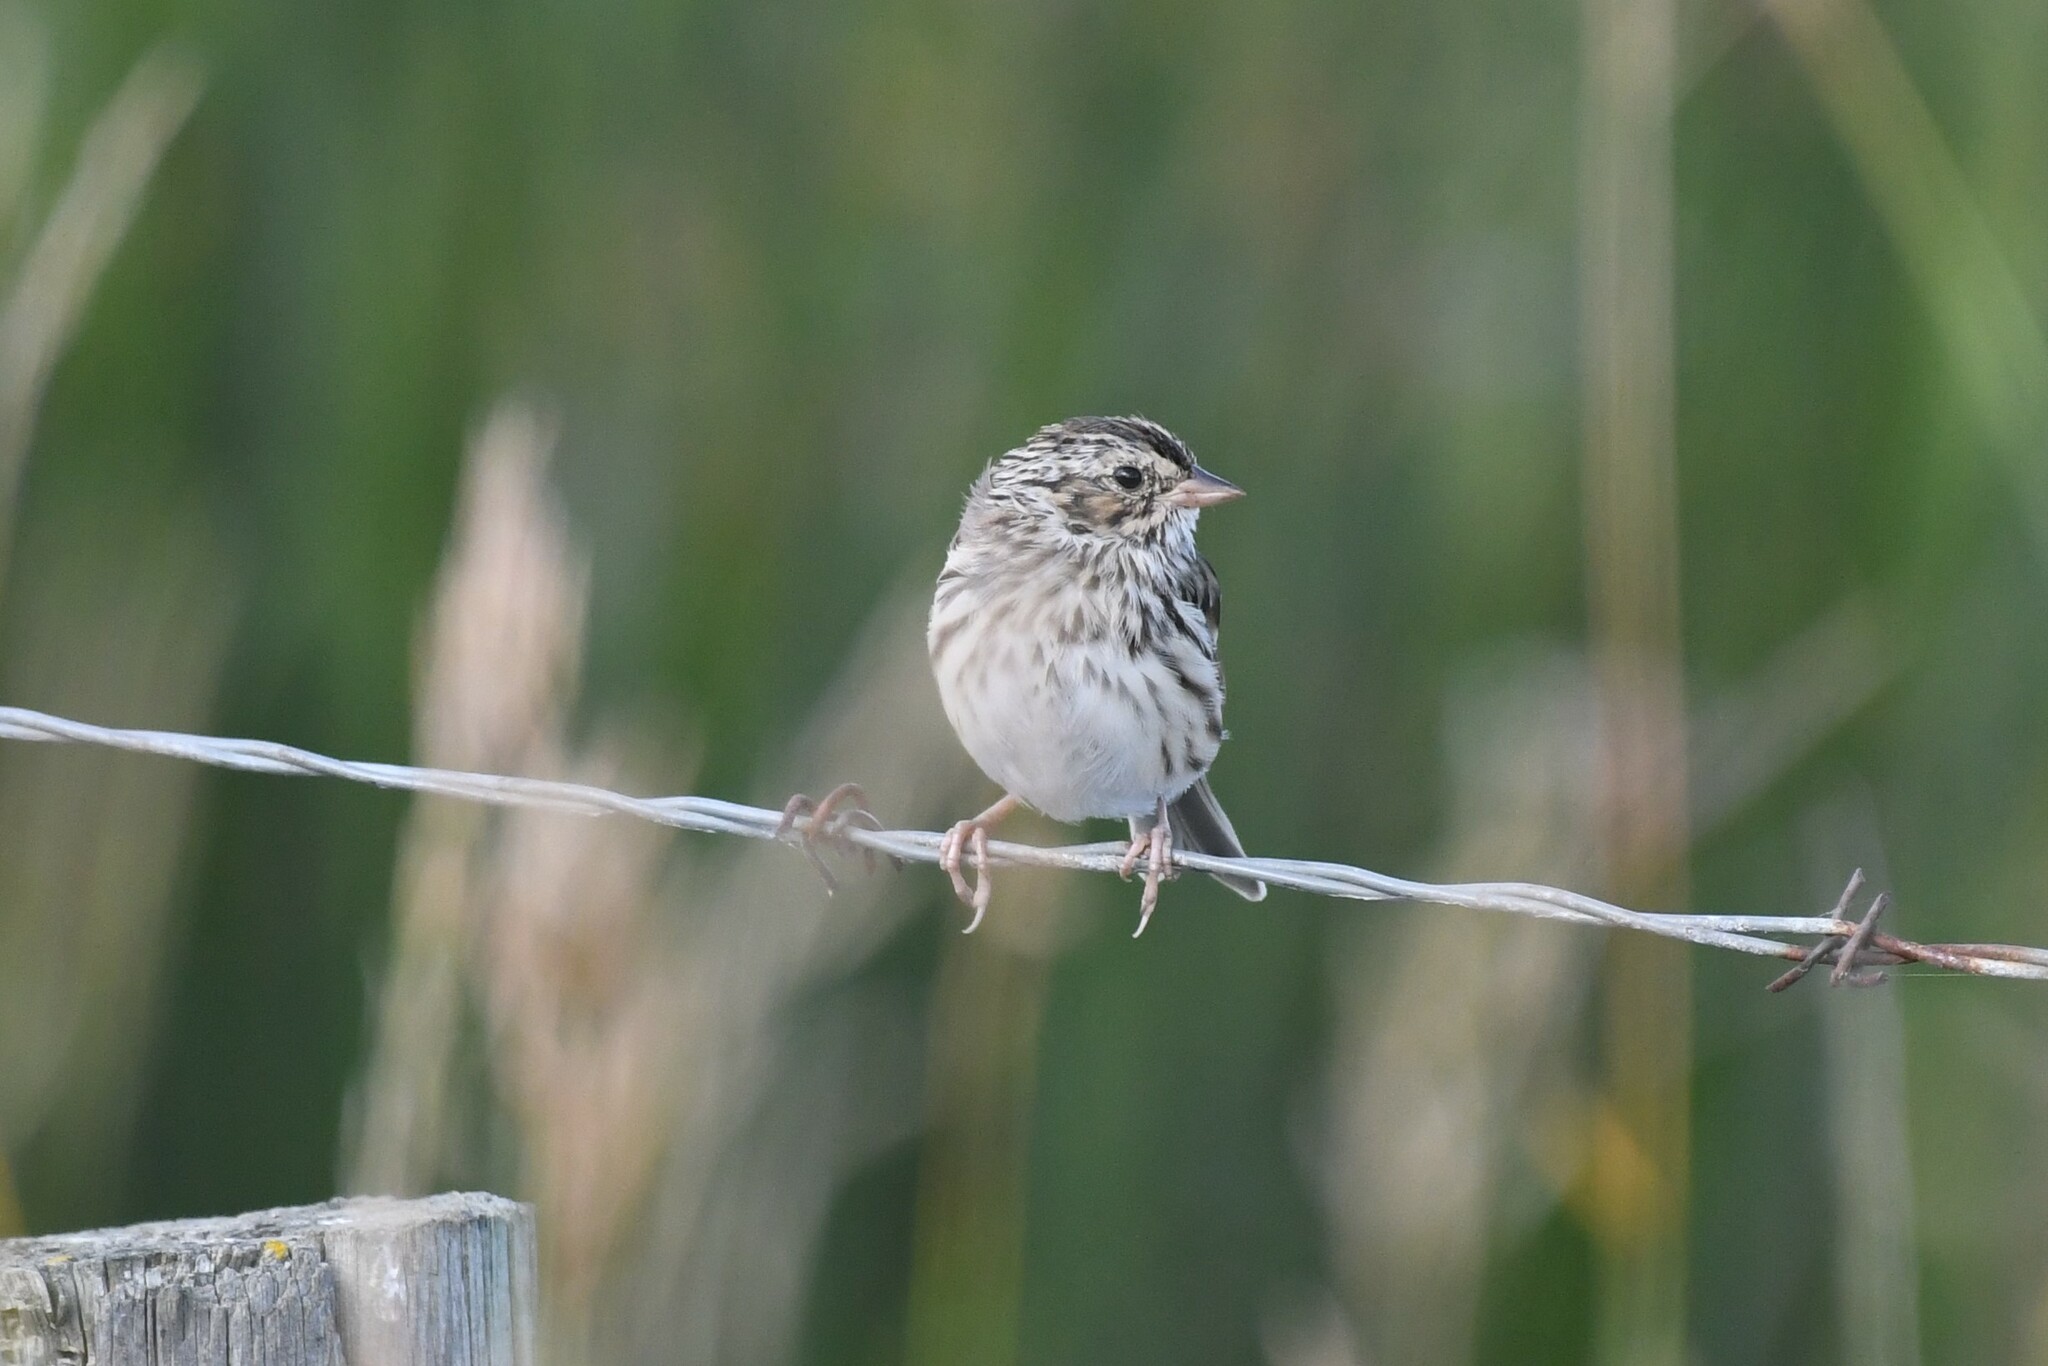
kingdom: Animalia
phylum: Chordata
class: Aves
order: Passeriformes
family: Passerellidae
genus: Passerculus
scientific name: Passerculus sandwichensis
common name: Savannah sparrow
